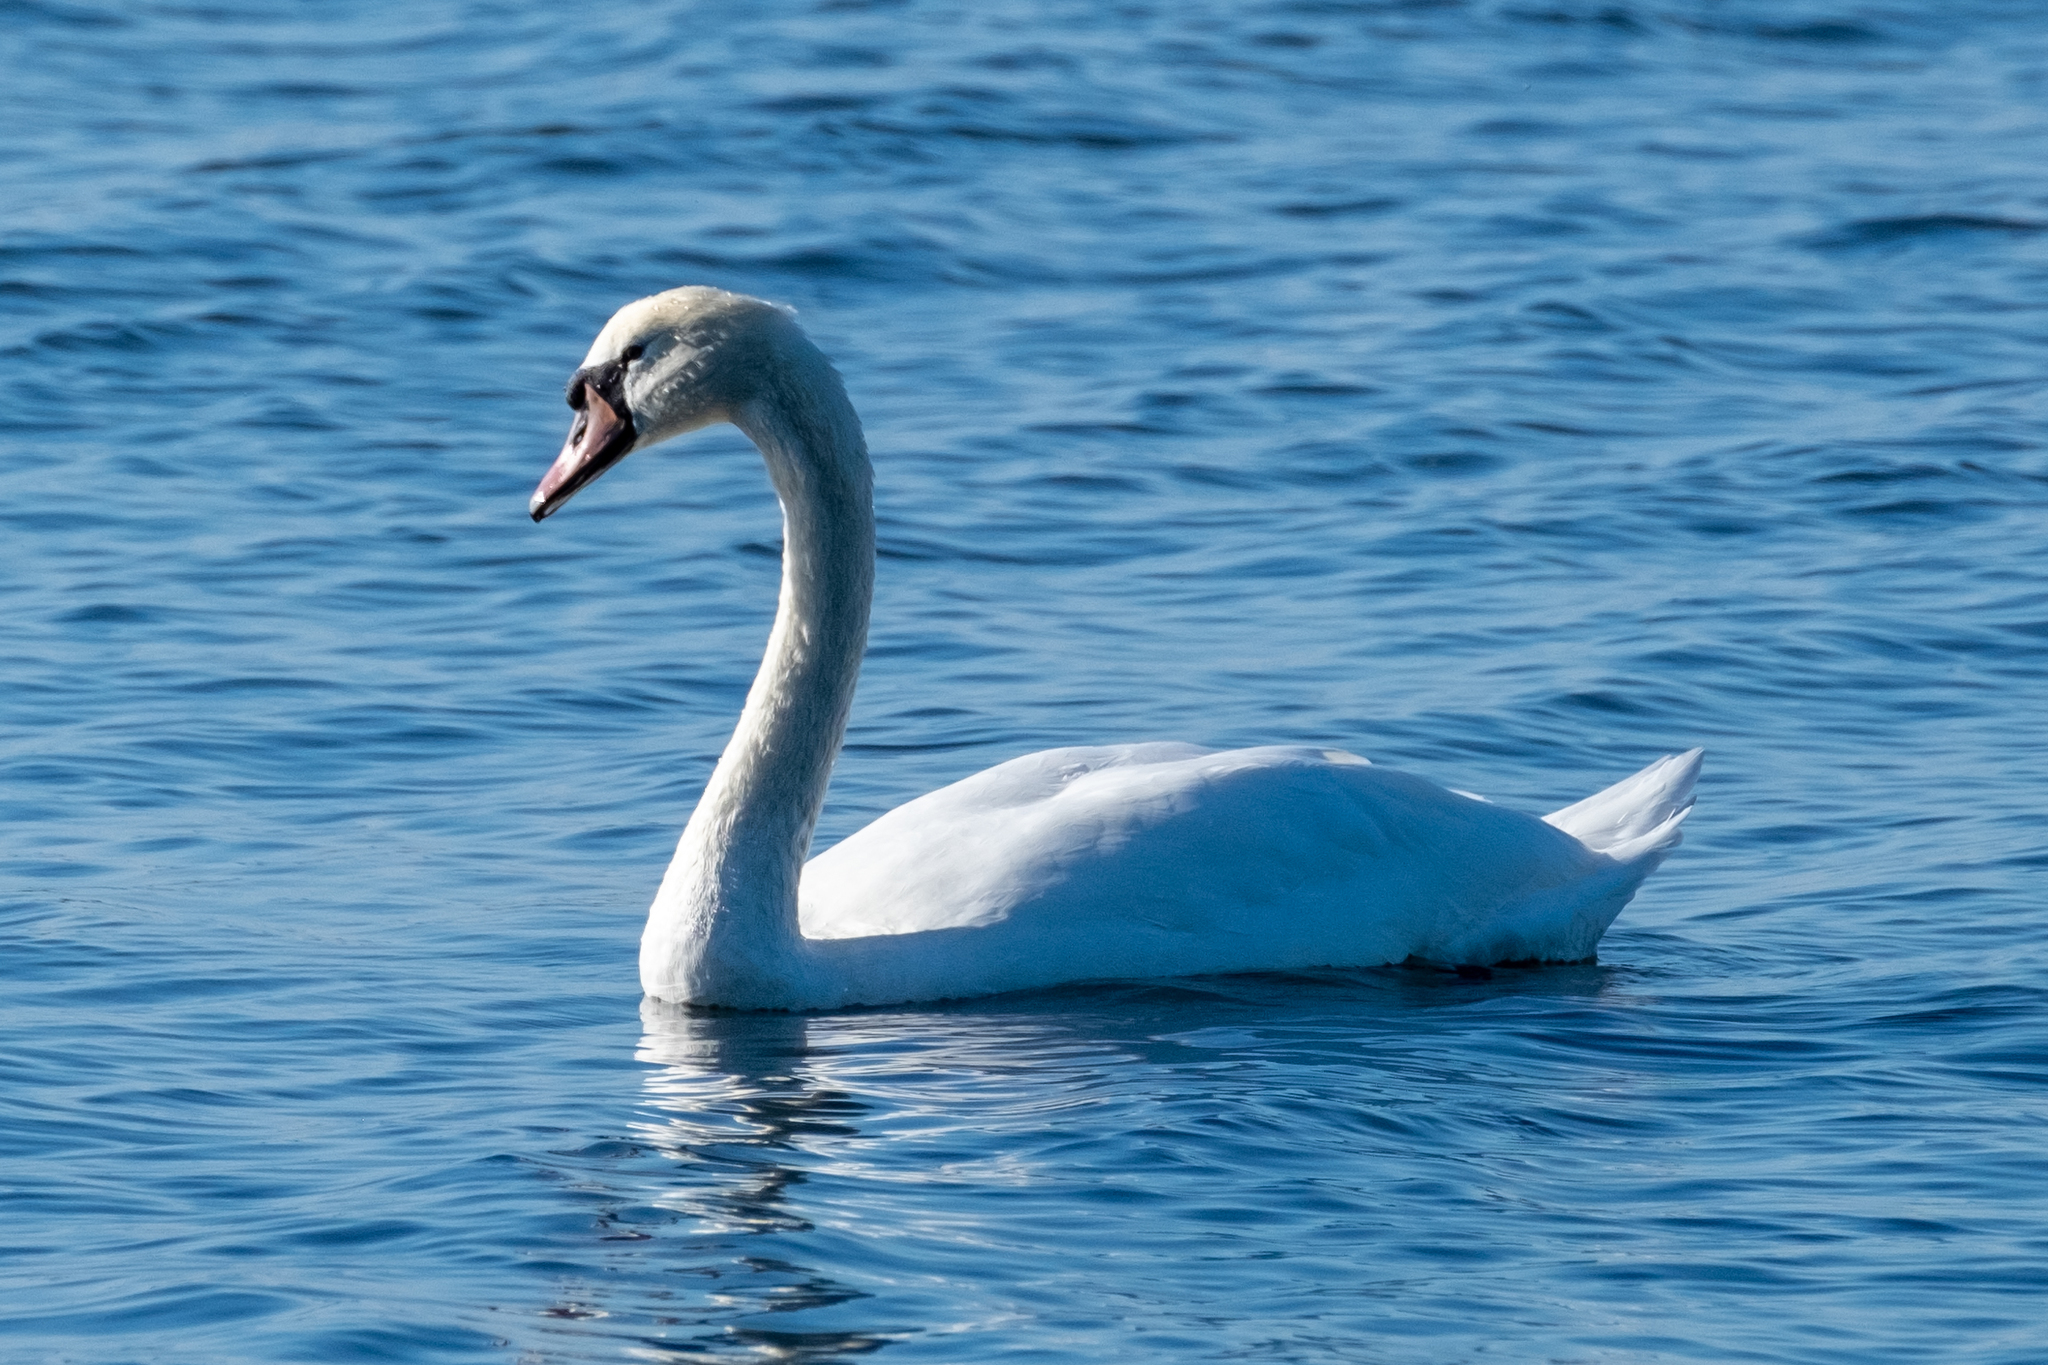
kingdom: Animalia
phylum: Chordata
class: Aves
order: Anseriformes
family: Anatidae
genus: Cygnus
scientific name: Cygnus olor
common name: Mute swan
